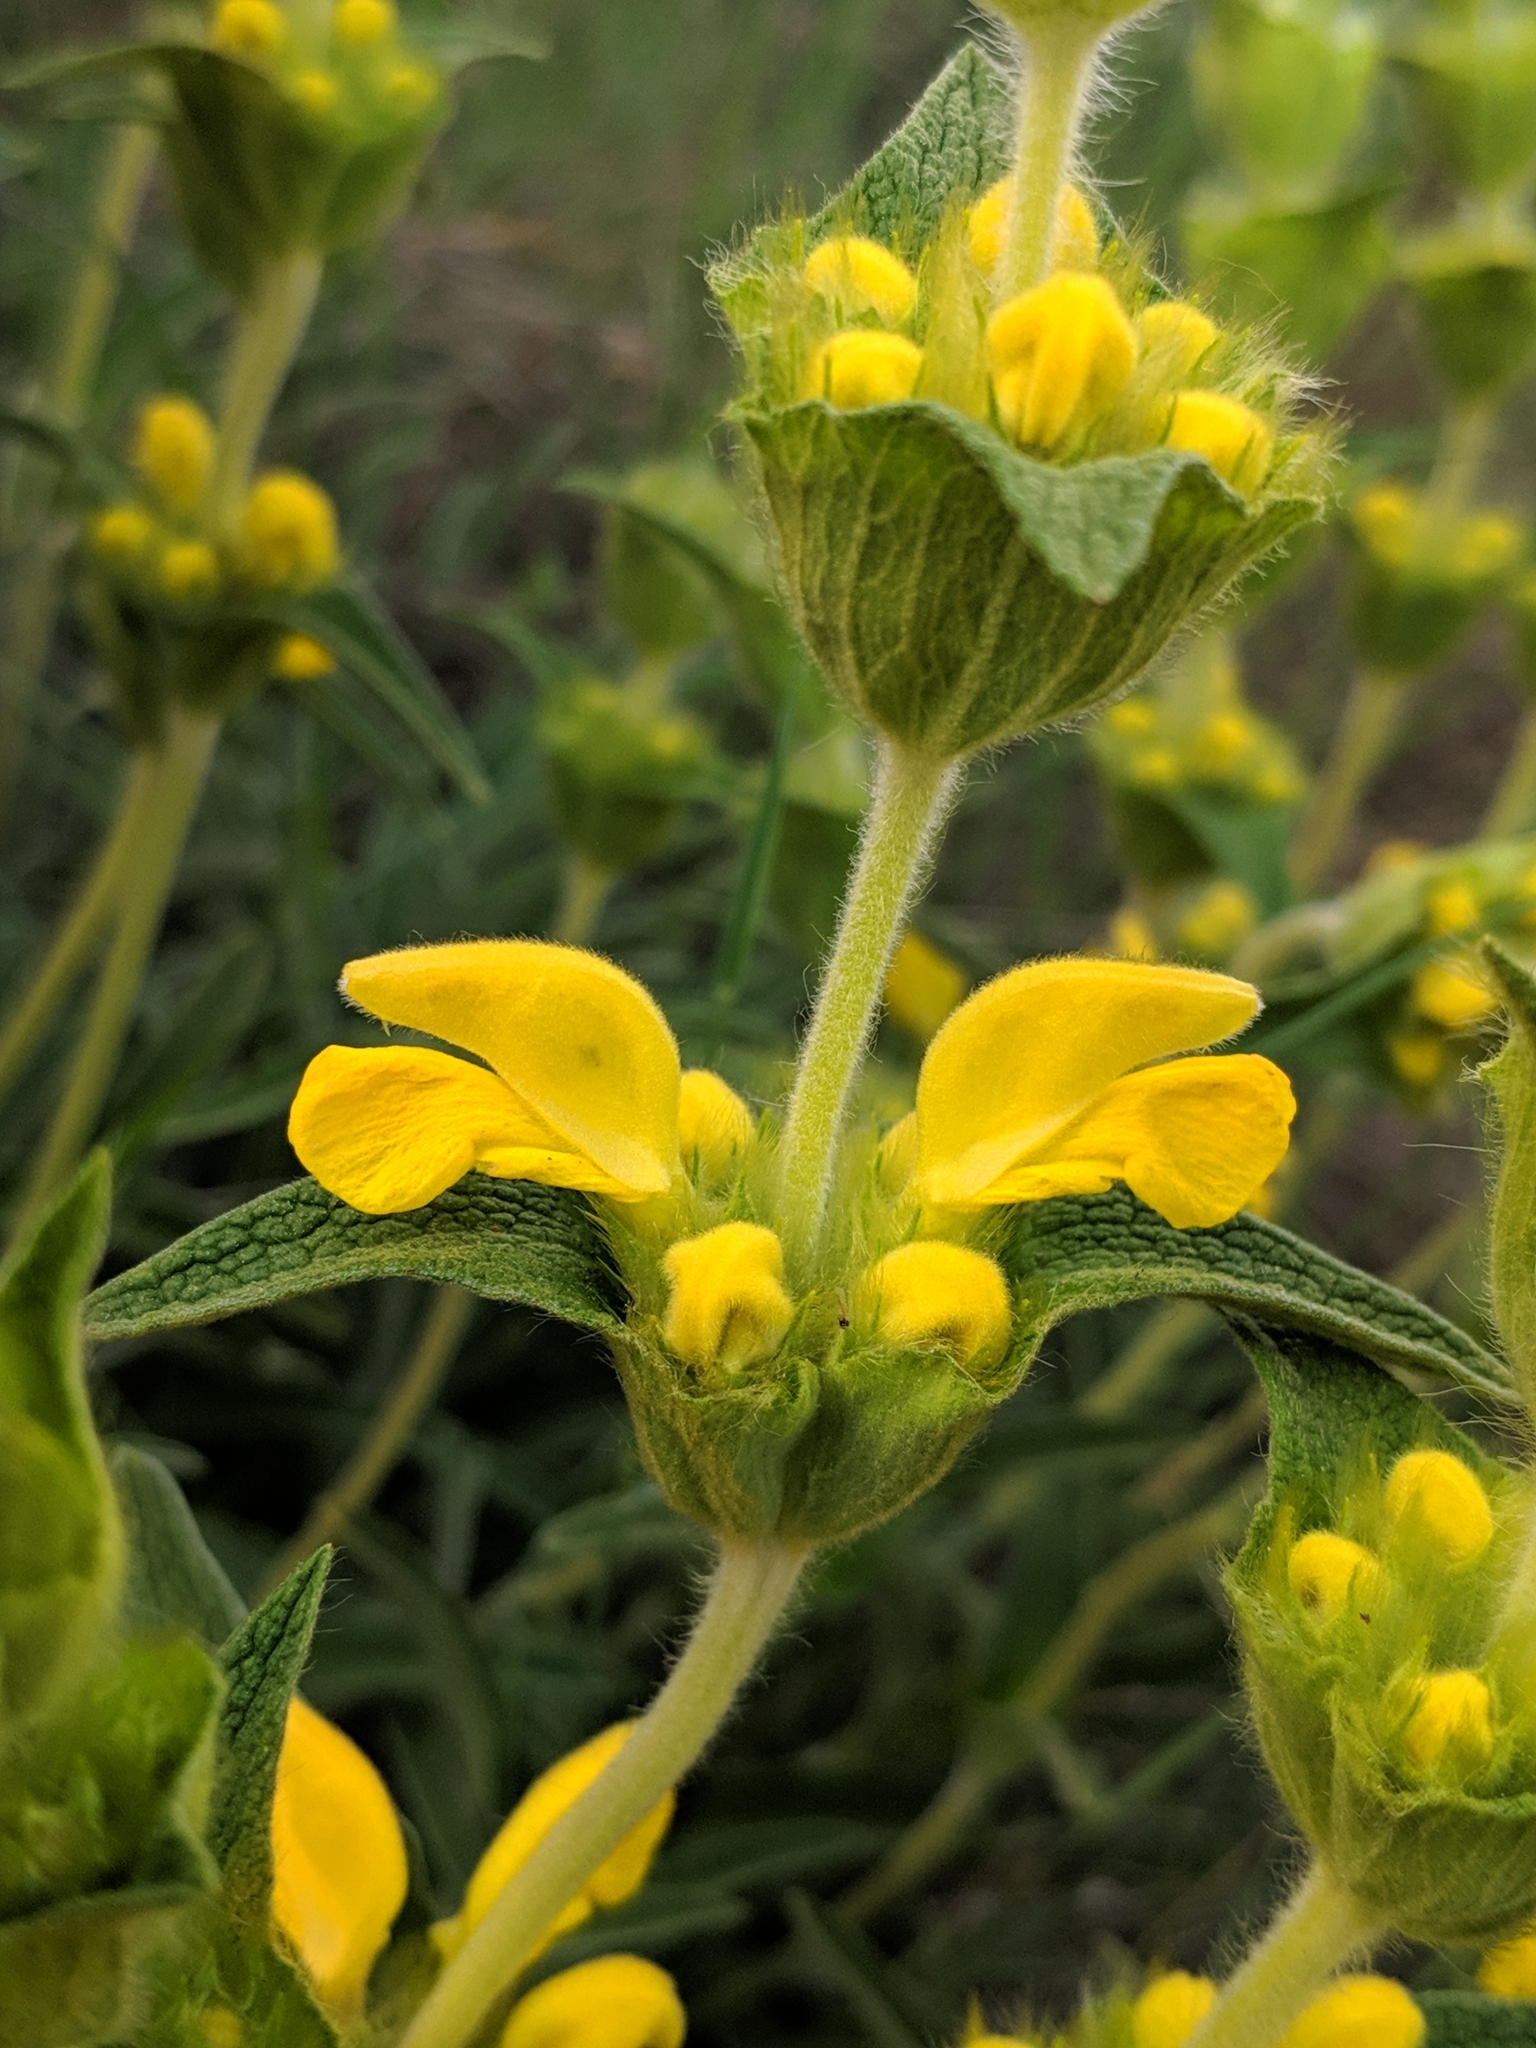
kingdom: Plantae
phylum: Tracheophyta
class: Magnoliopsida
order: Lamiales
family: Lamiaceae
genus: Phlomis
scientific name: Phlomis lychnitis
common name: Lampwickplant
